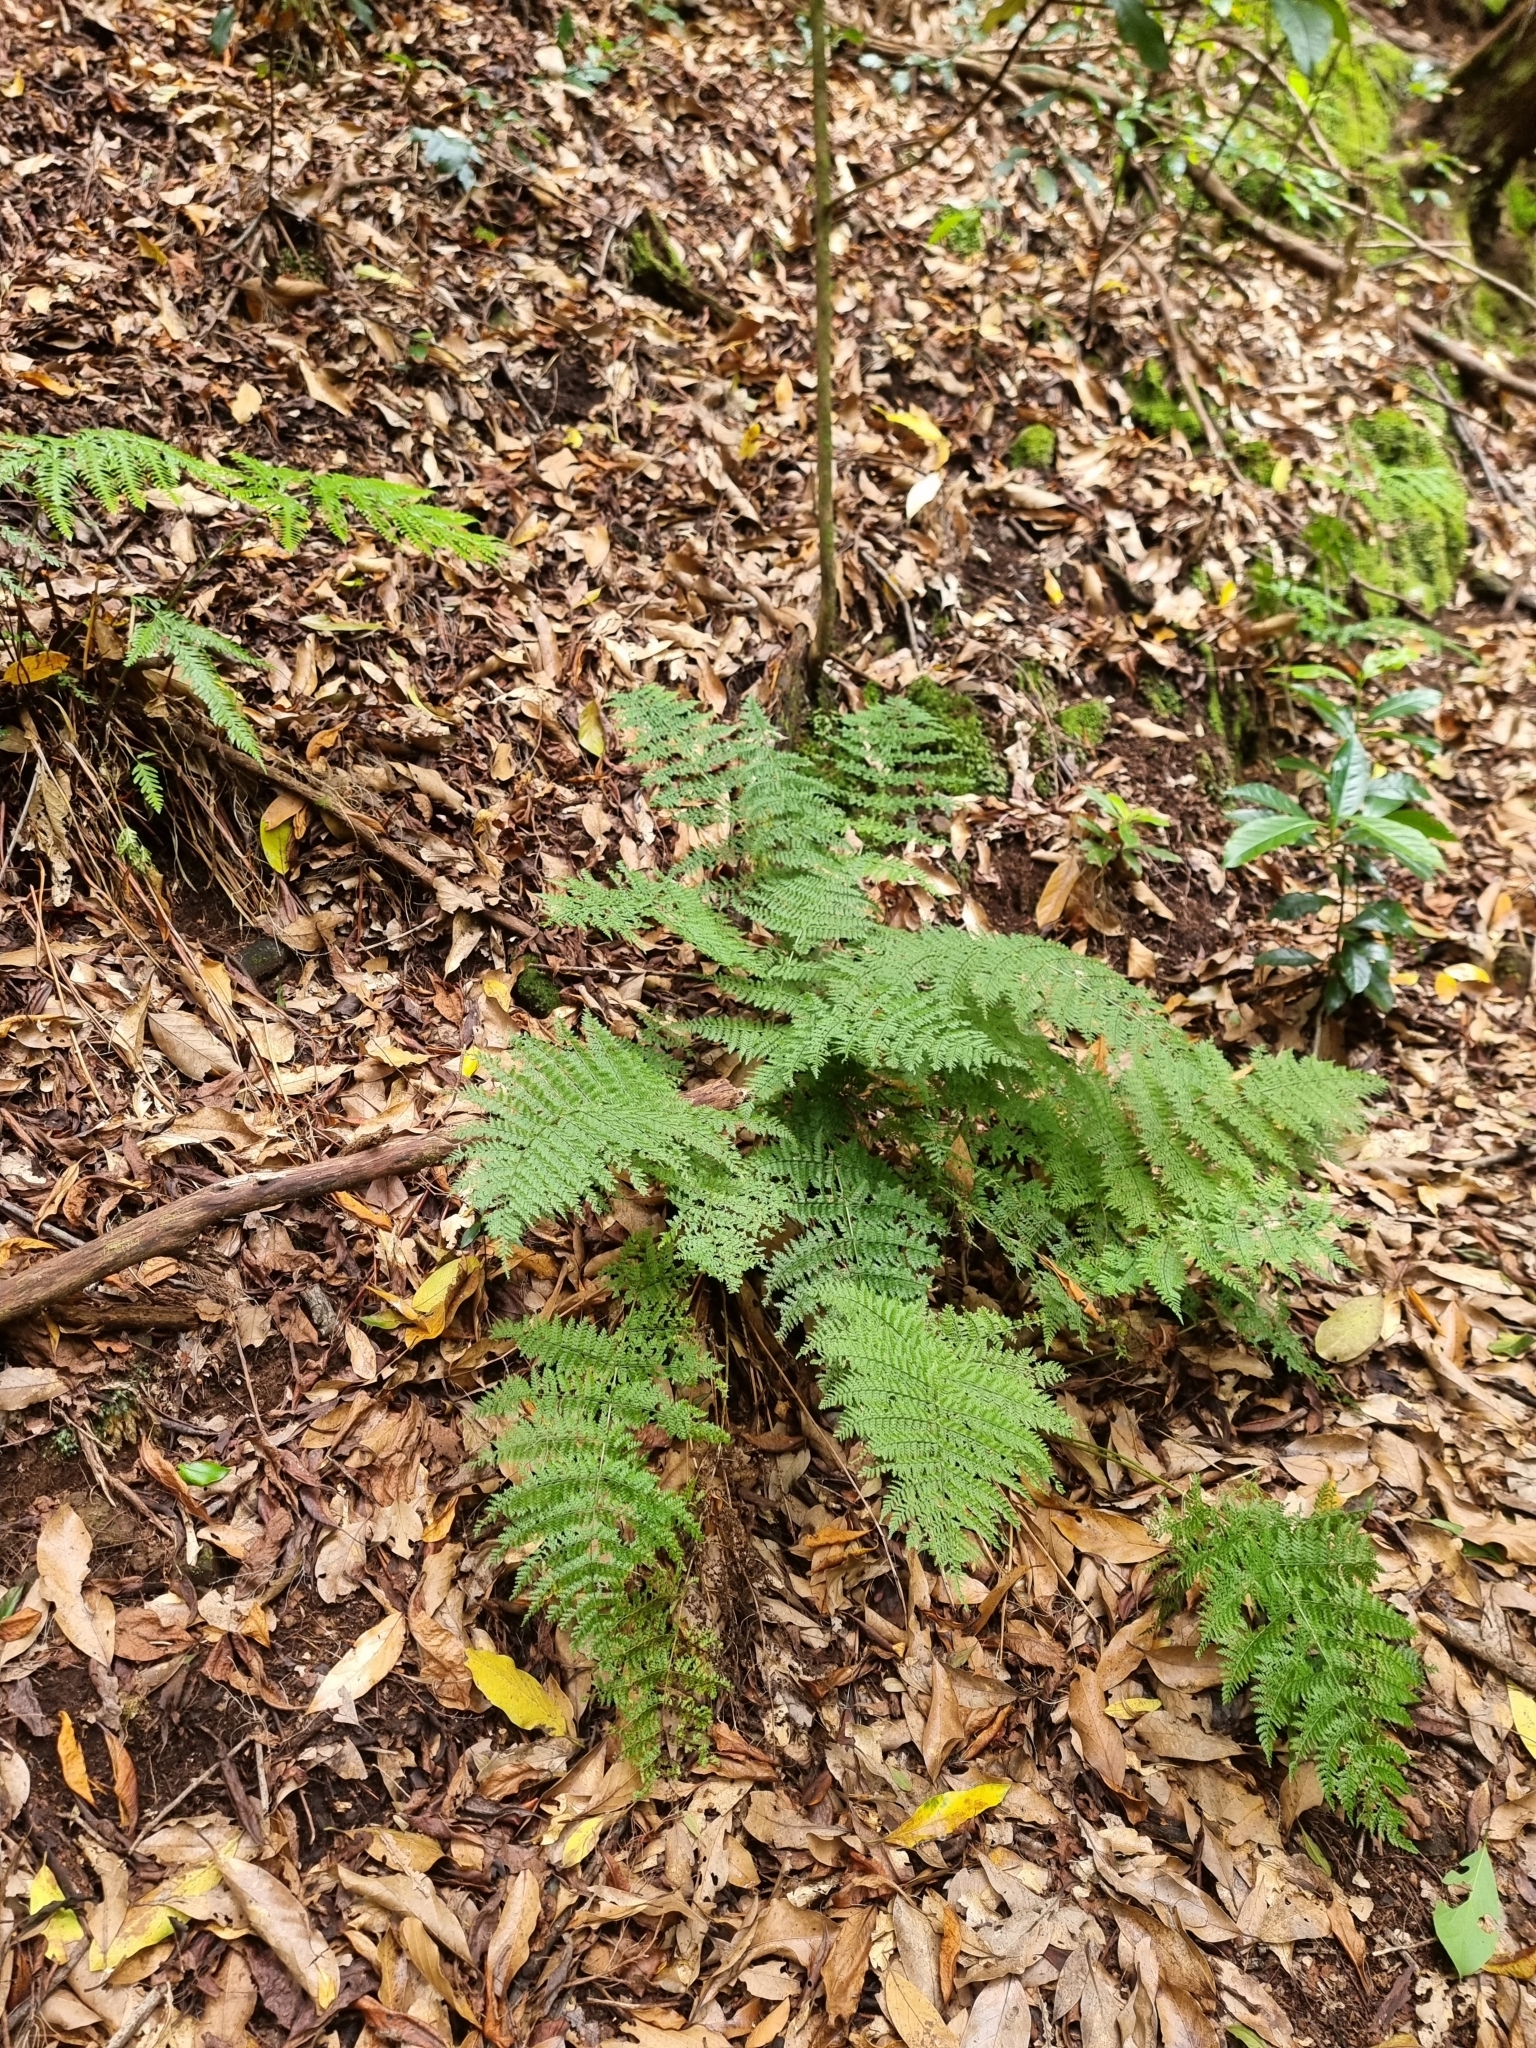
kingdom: Plantae
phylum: Tracheophyta
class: Polypodiopsida
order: Polypodiales
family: Dryopteridaceae
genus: Dryopteris
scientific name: Dryopteris intermedia
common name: Evergreen wood fern
